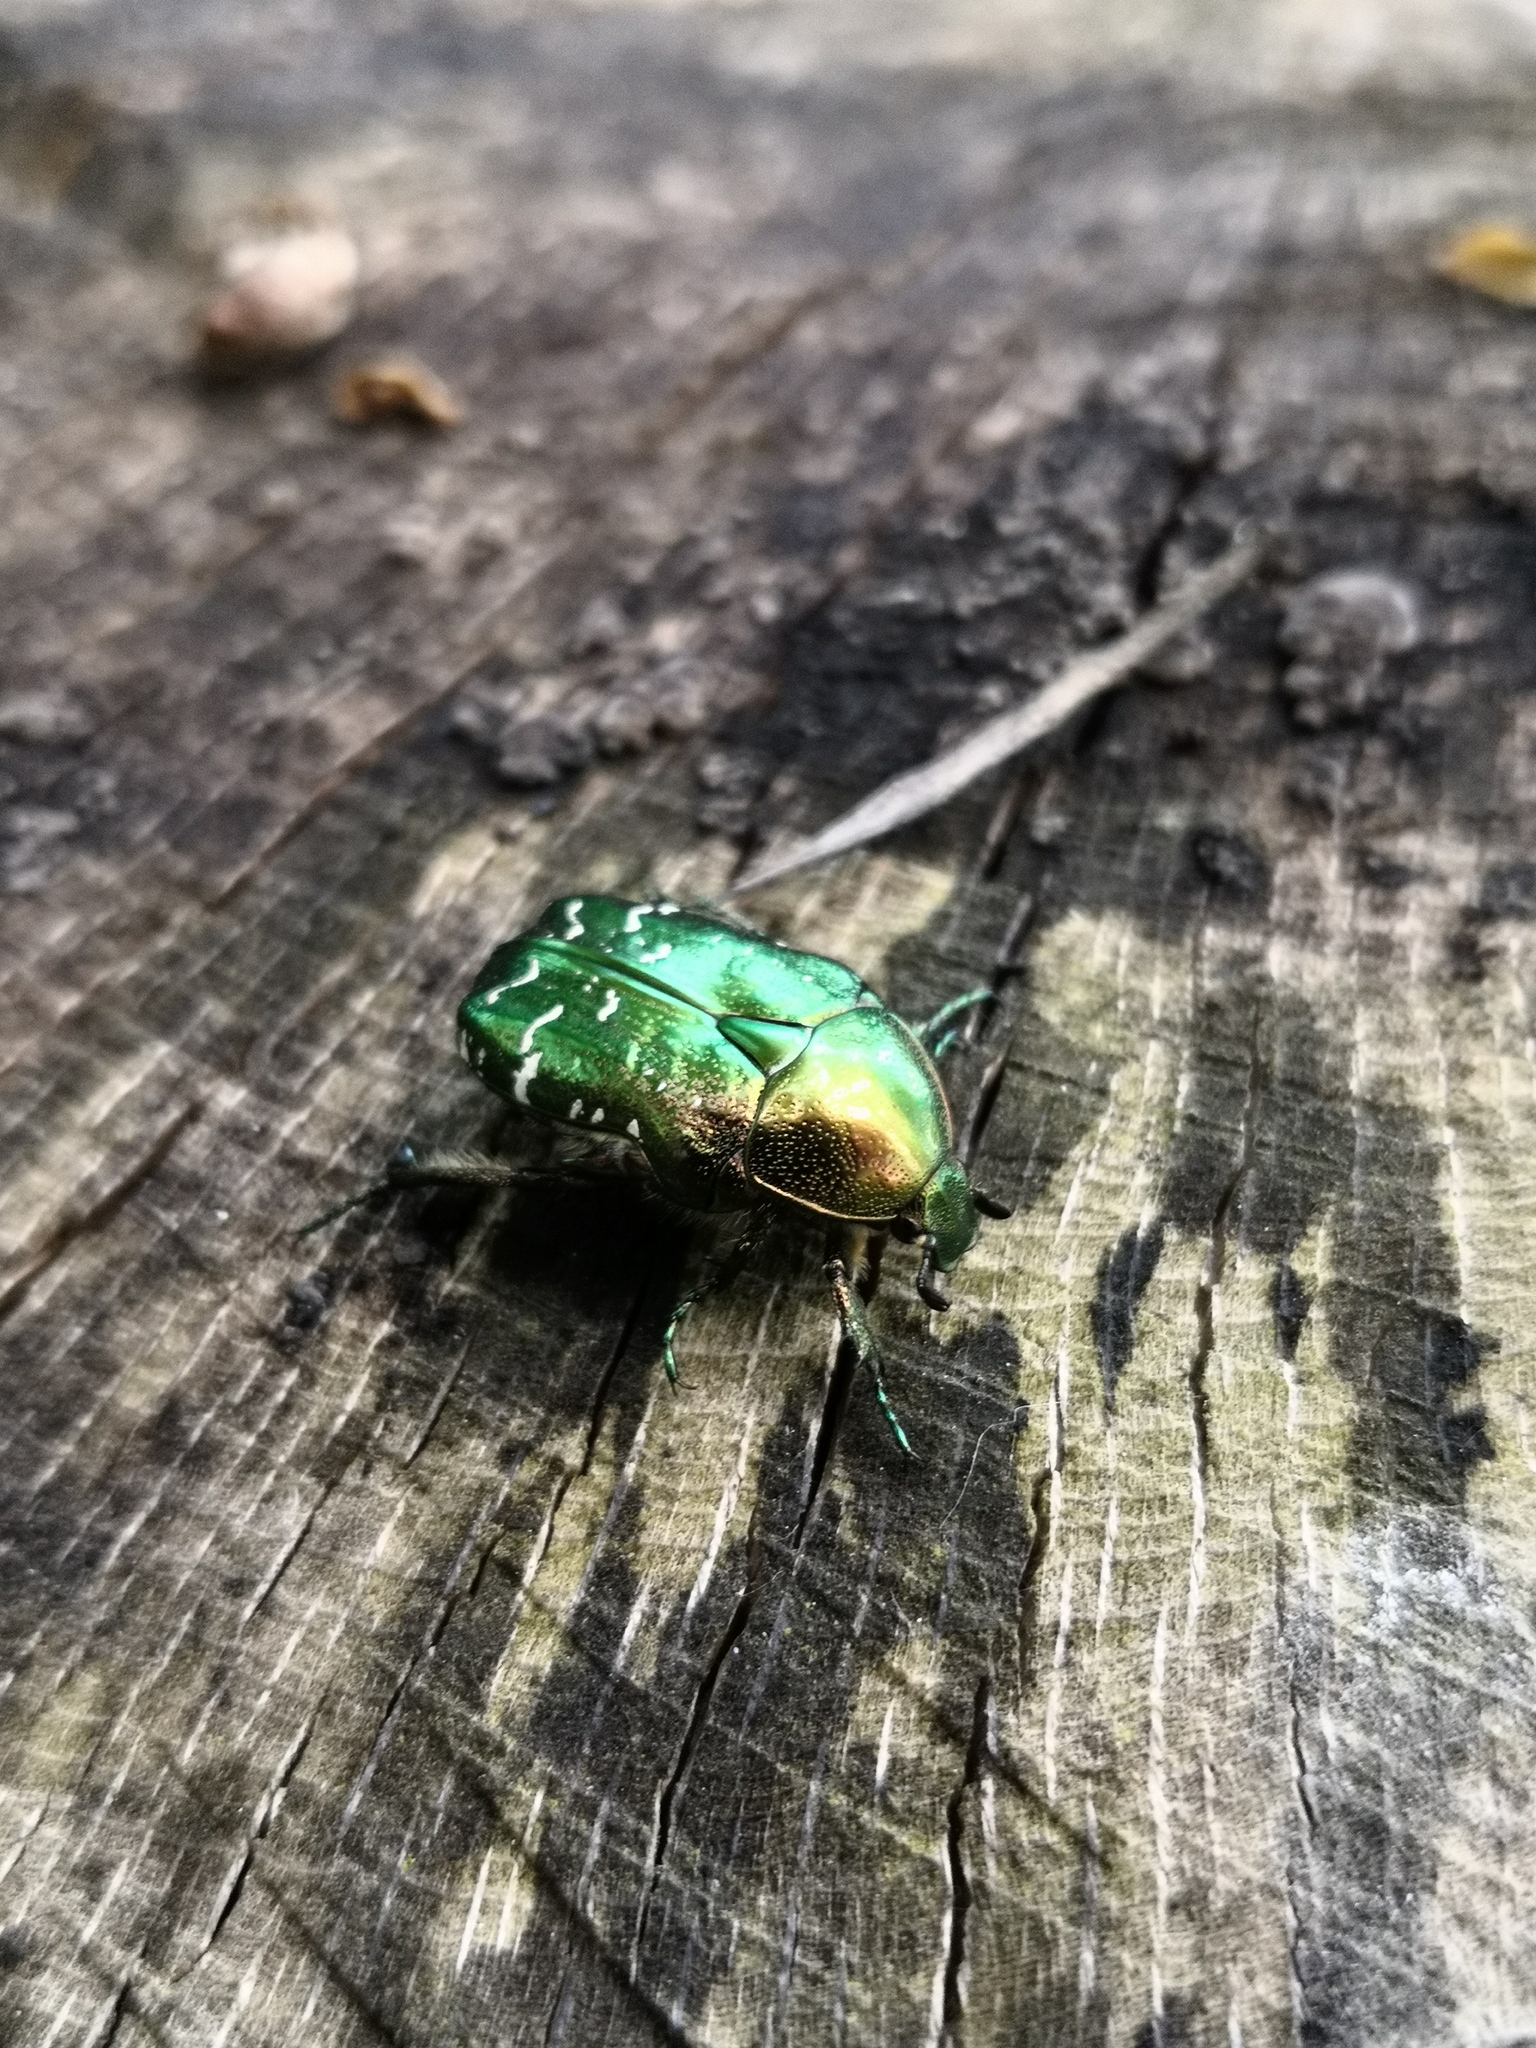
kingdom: Animalia
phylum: Arthropoda
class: Insecta
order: Coleoptera
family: Scarabaeidae
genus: Cetonia
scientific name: Cetonia aurata
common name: Rose chafer
